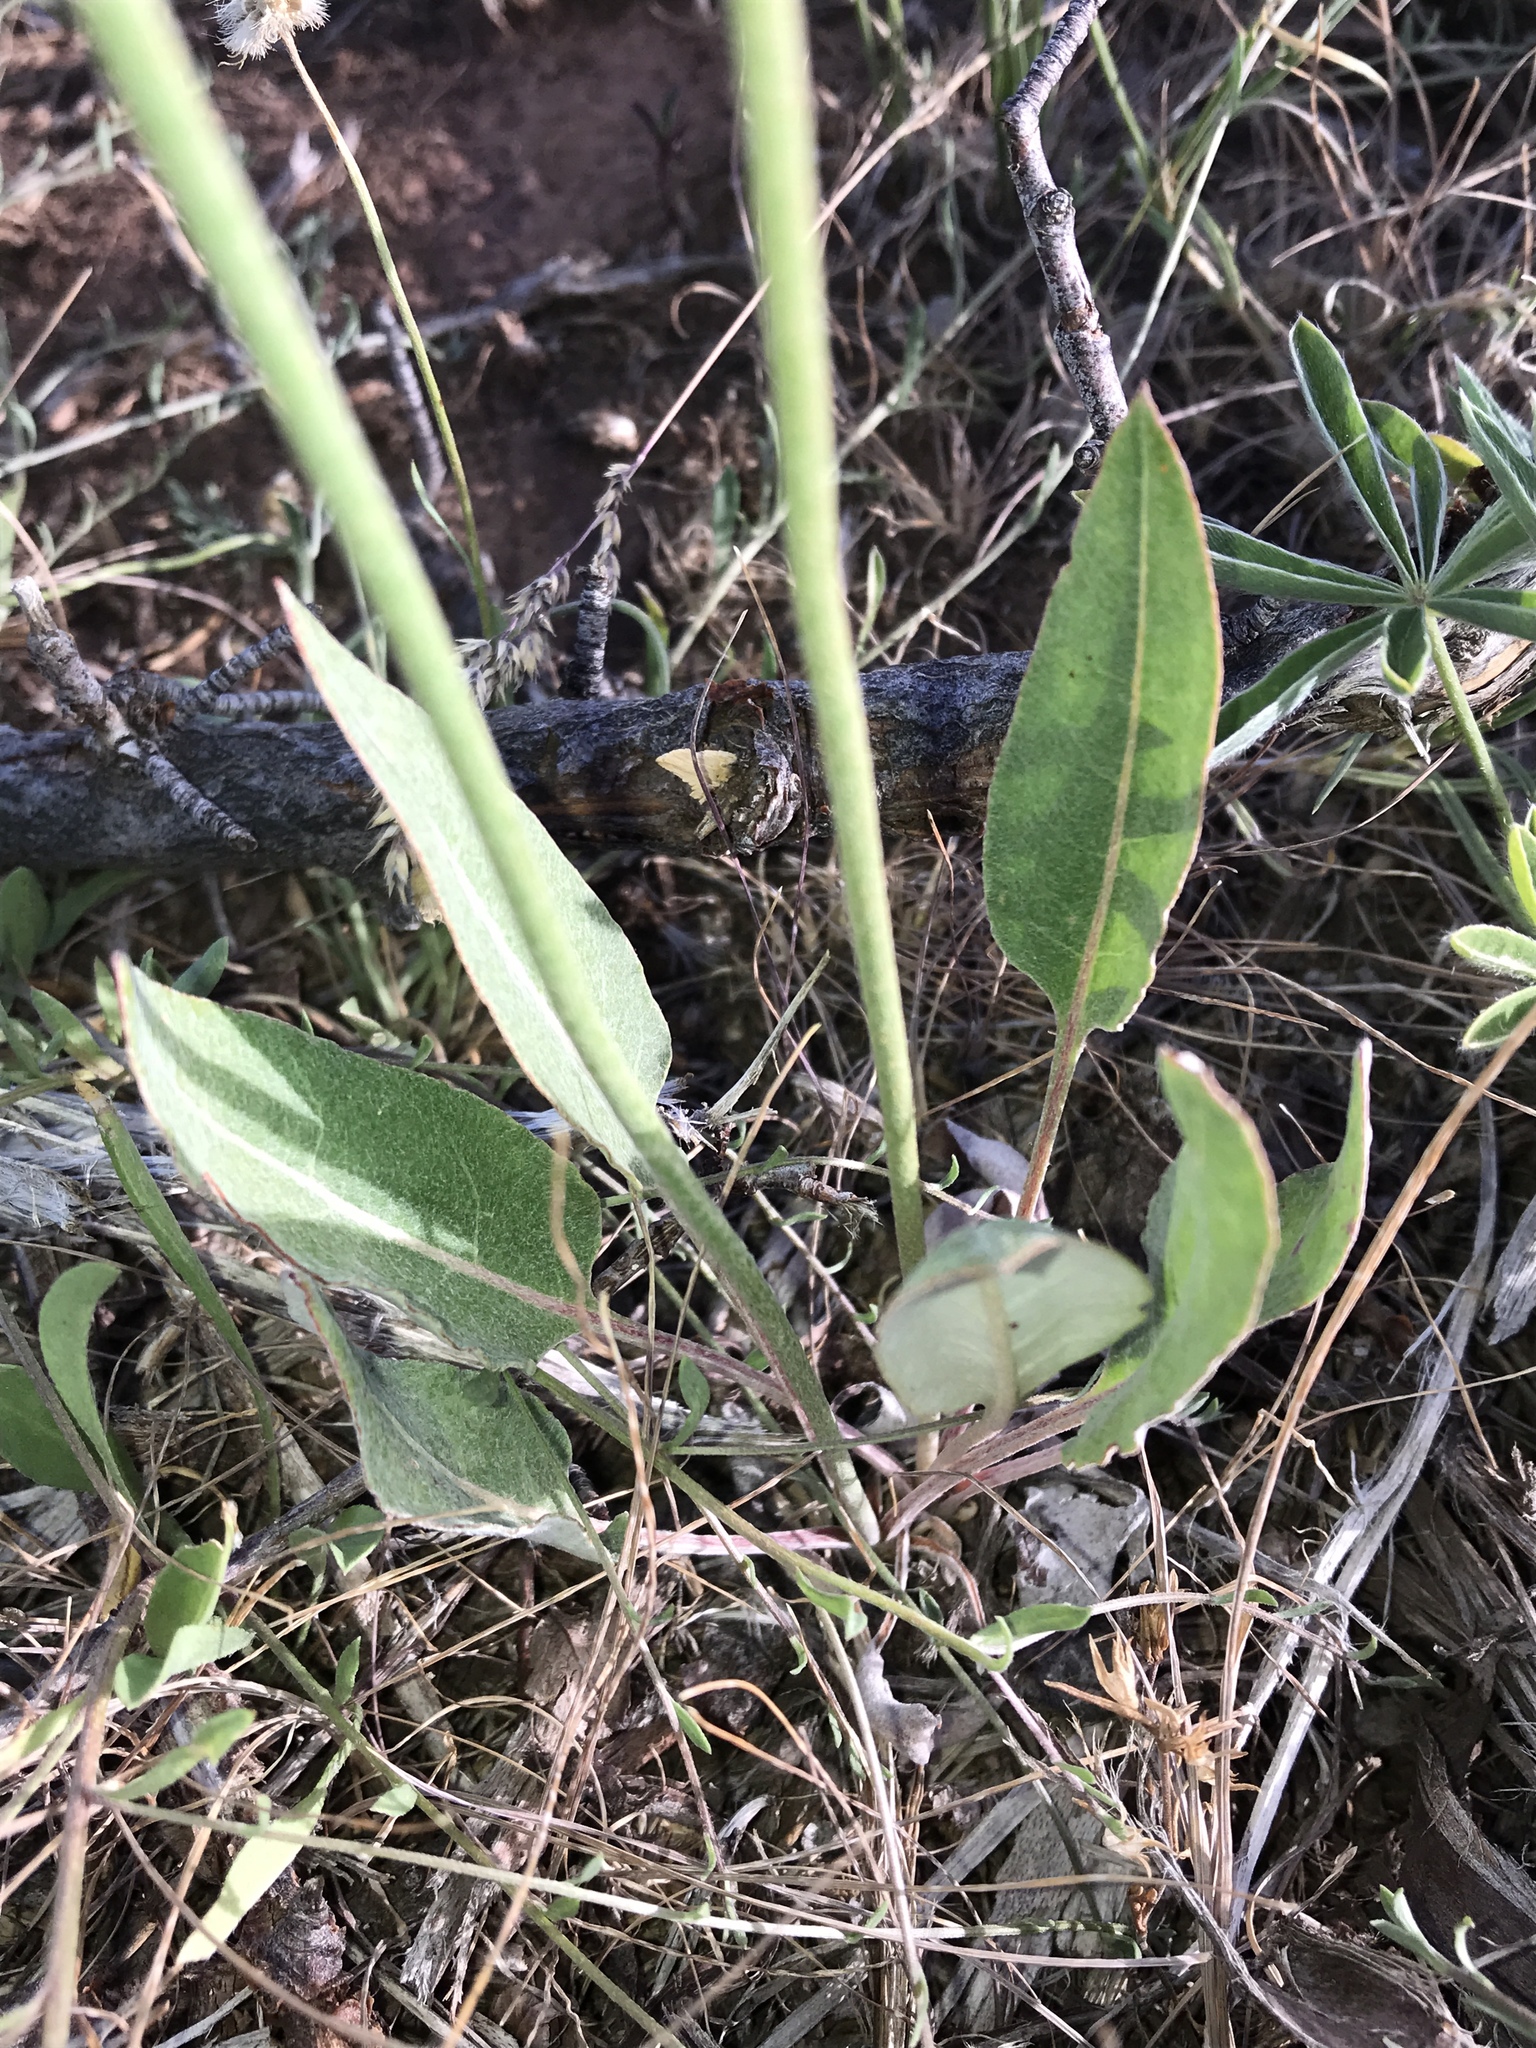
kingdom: Plantae
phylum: Tracheophyta
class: Magnoliopsida
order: Caryophyllales
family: Polygonaceae
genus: Eriogonum
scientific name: Eriogonum racemosum
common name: Redroot wild buckwheat
